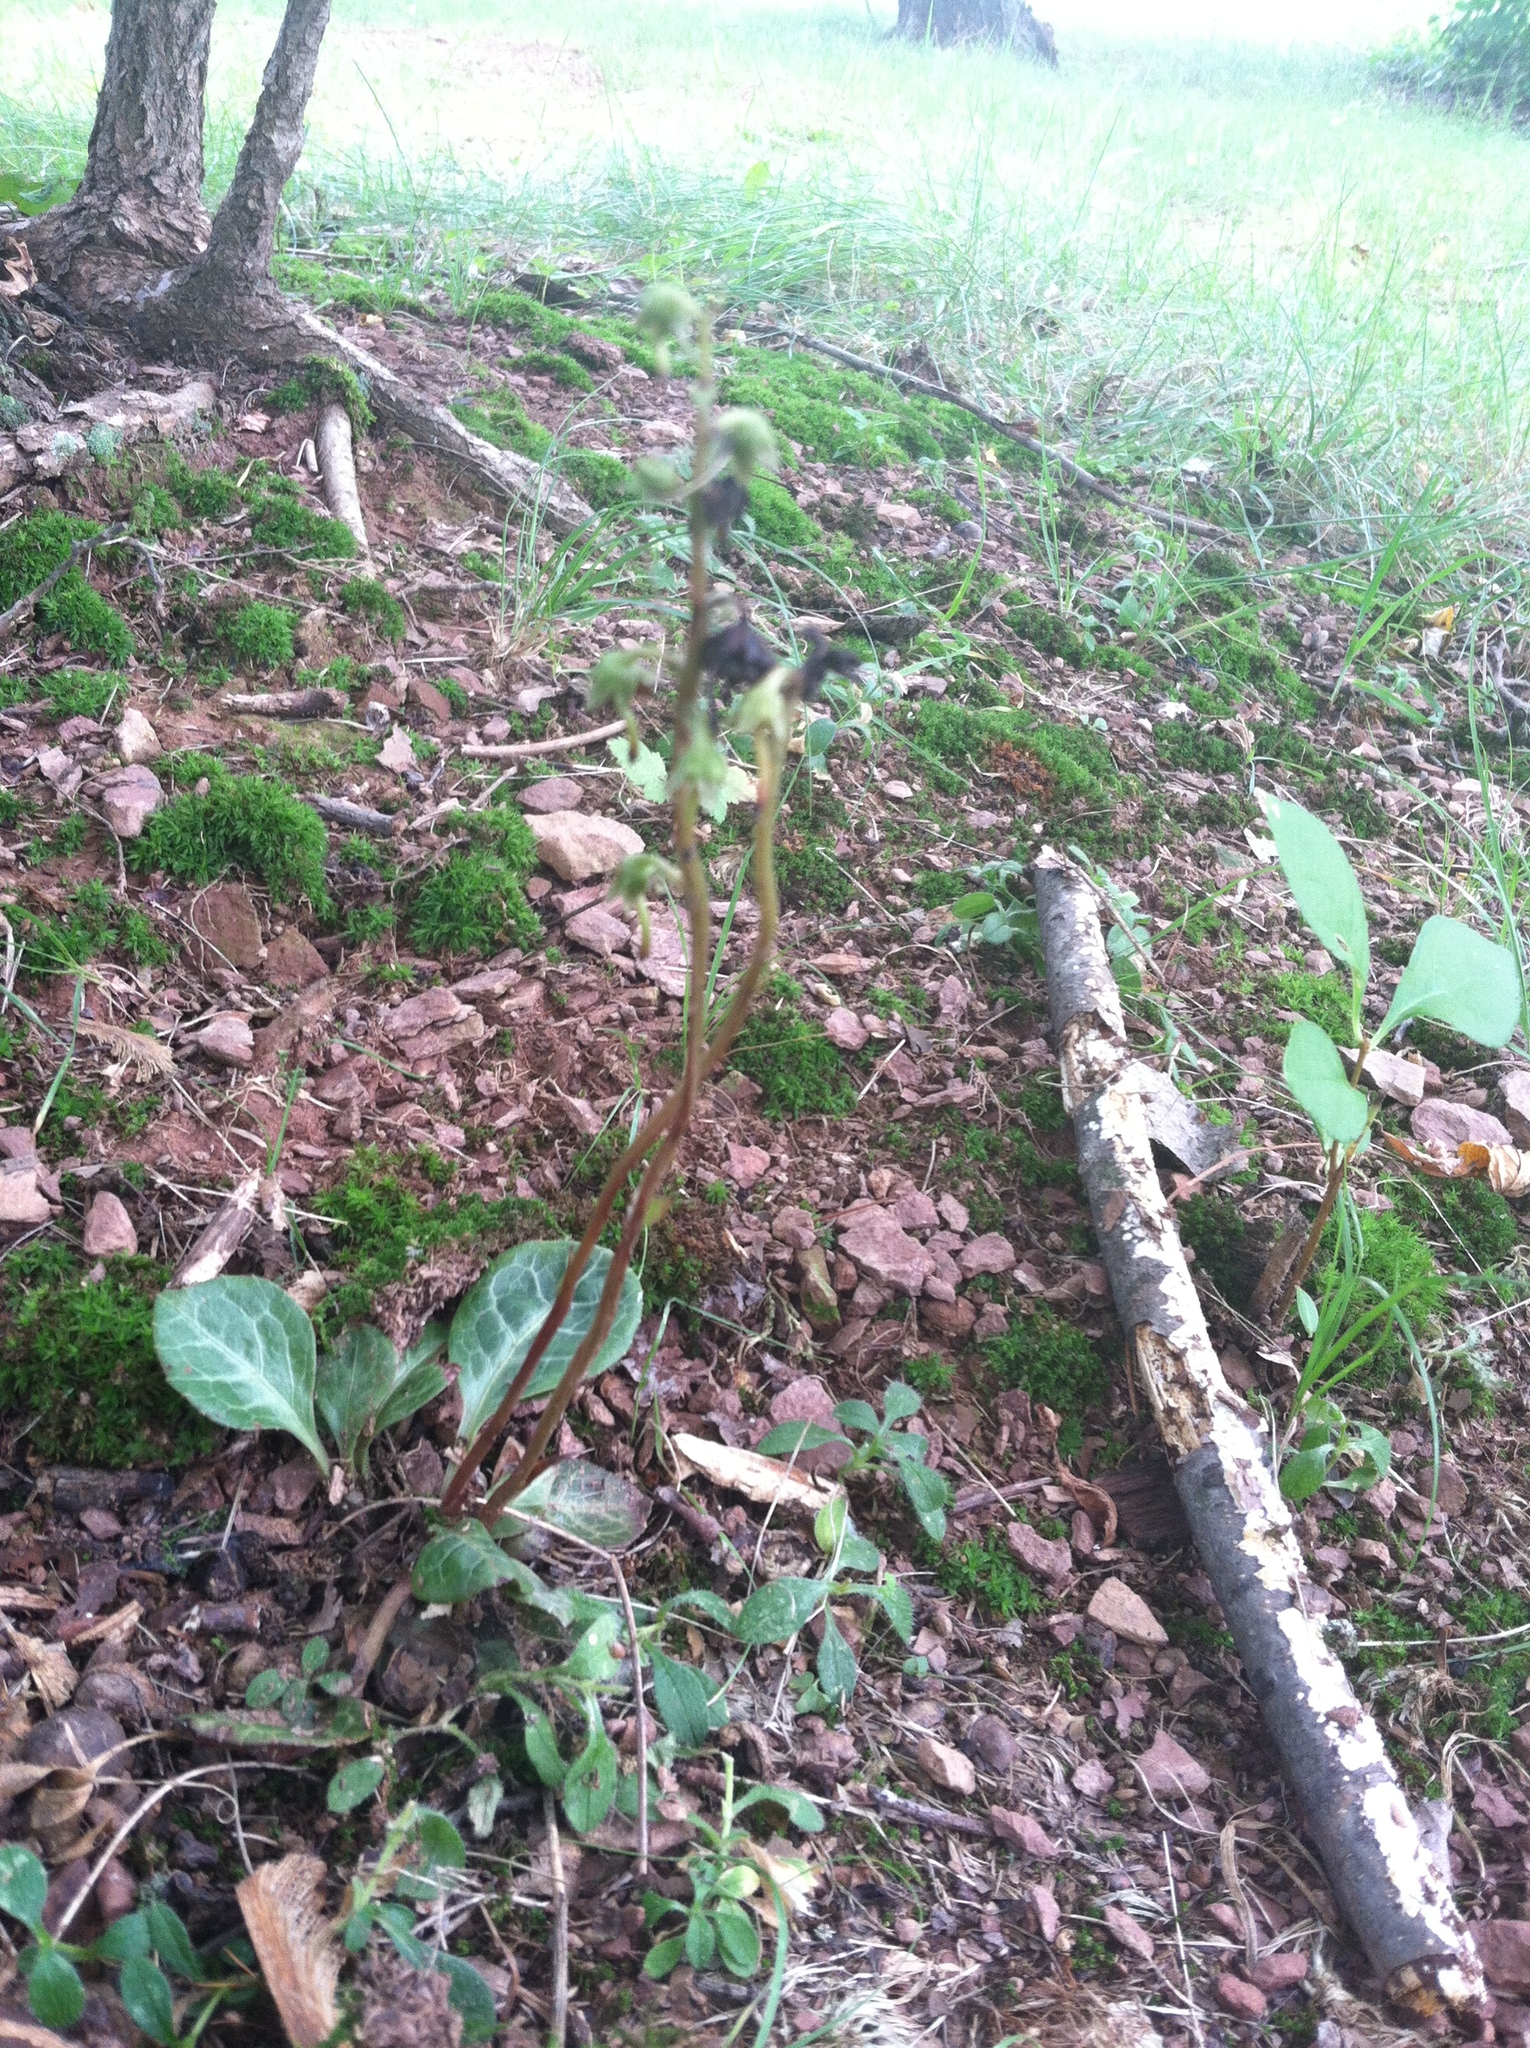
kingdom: Plantae
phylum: Tracheophyta
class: Magnoliopsida
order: Ericales
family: Ericaceae
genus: Pyrola
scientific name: Pyrola americana
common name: American wintergreen
